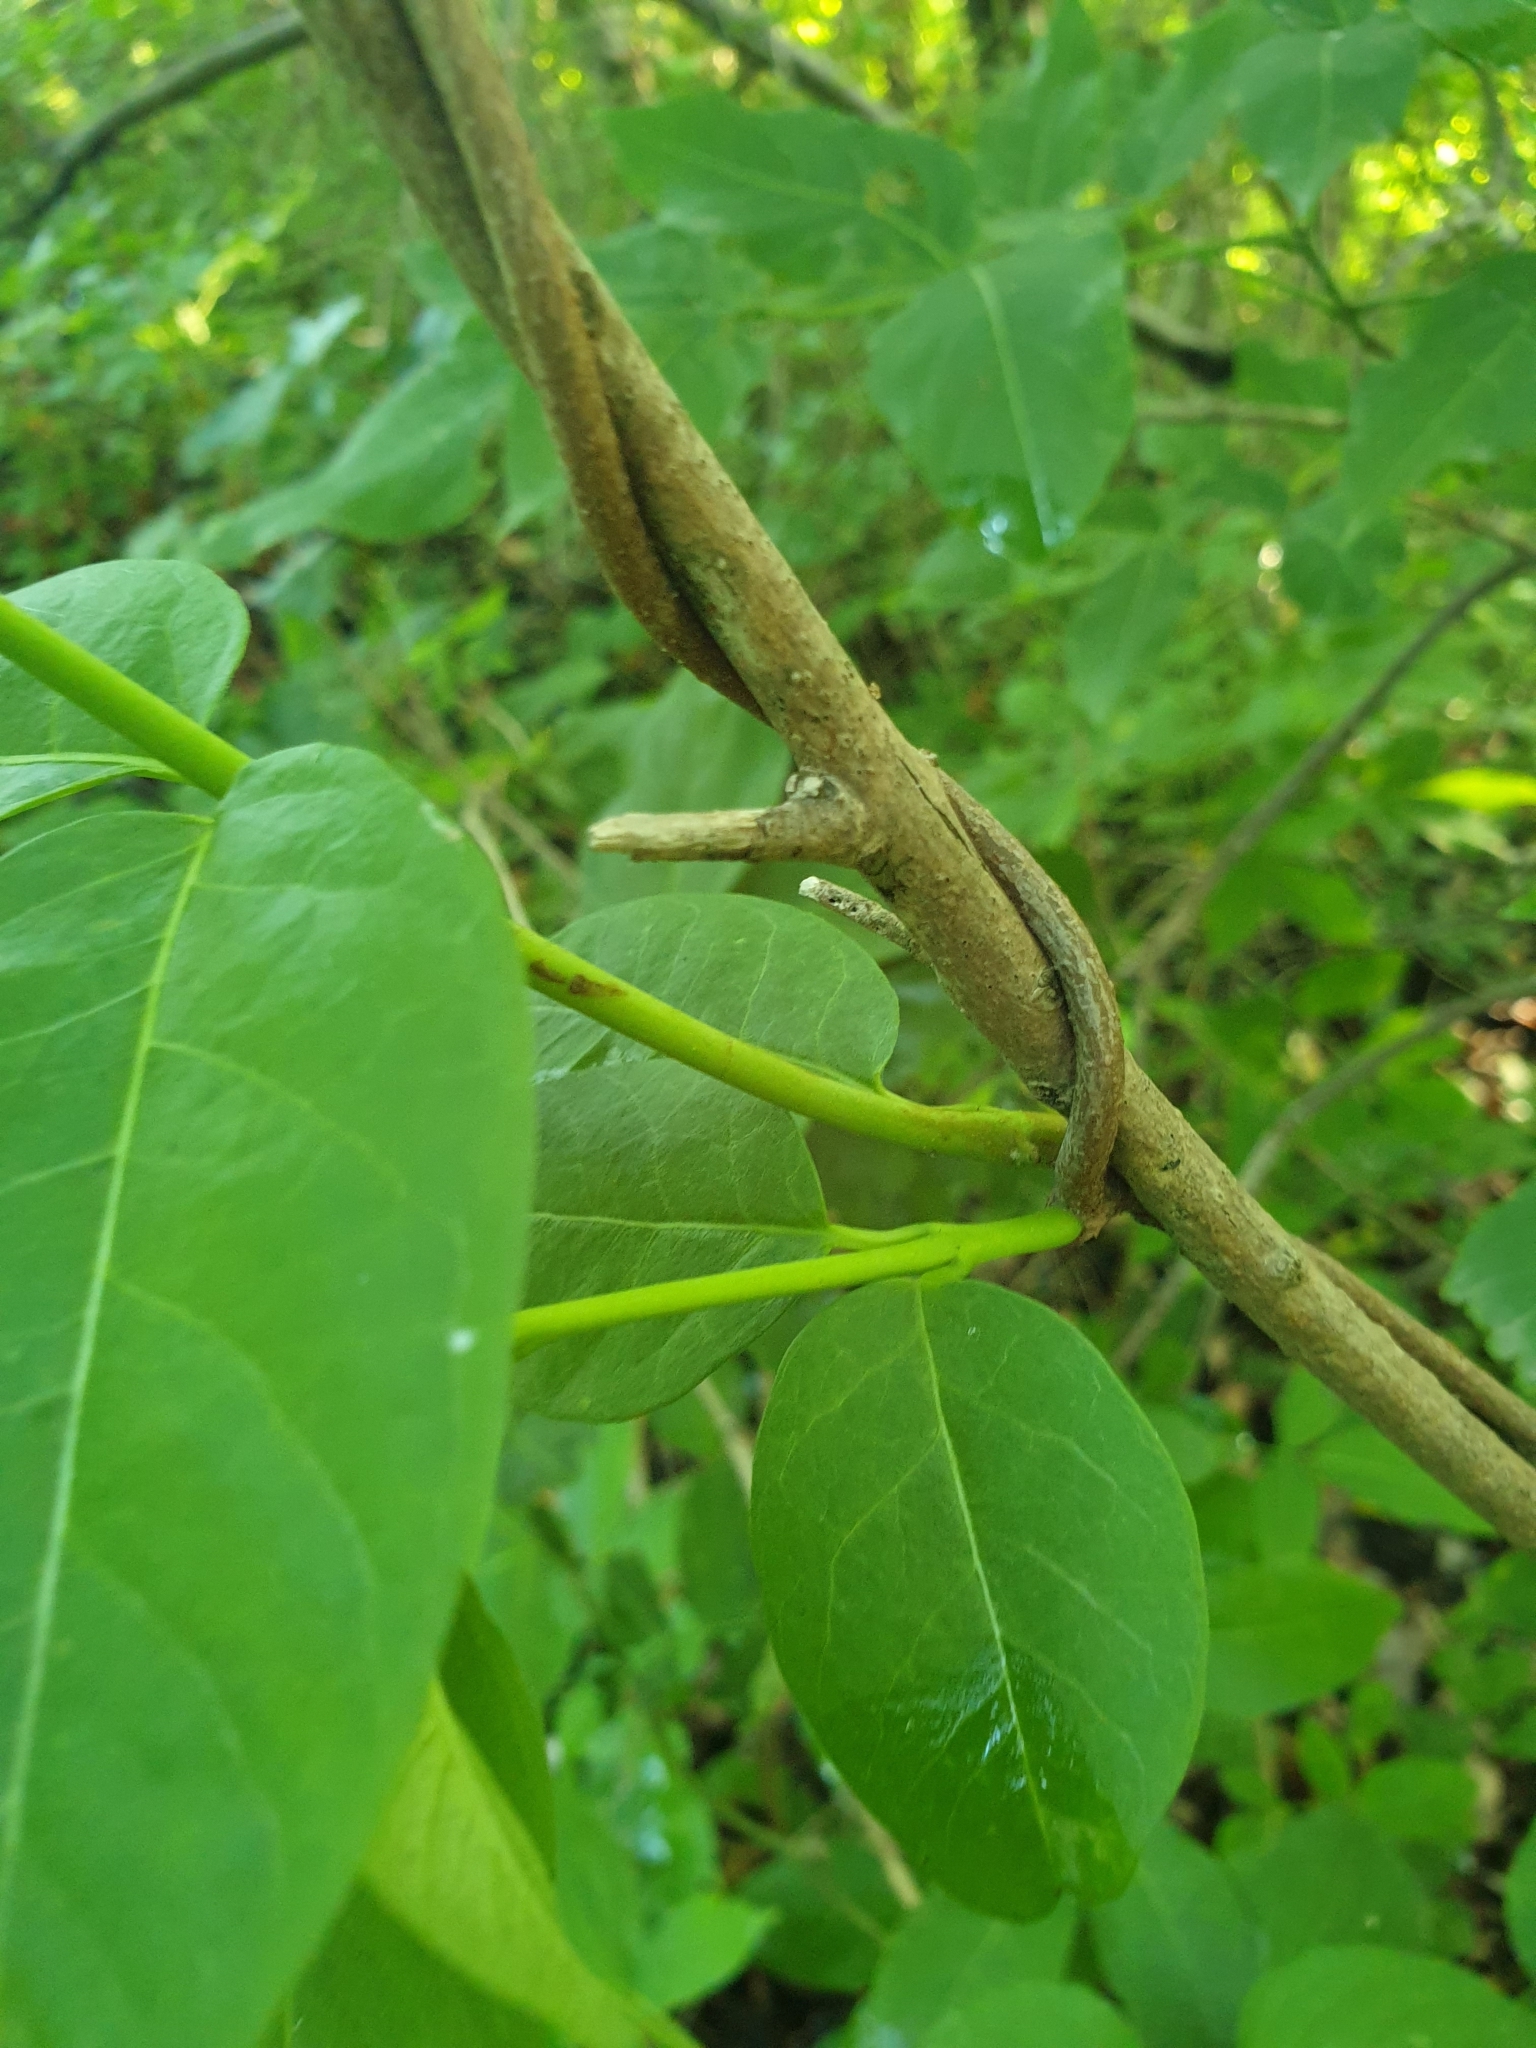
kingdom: Plantae
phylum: Tracheophyta
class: Magnoliopsida
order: Gentianales
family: Apocynaceae
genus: Periploca
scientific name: Periploca graeca
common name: Silkvine
